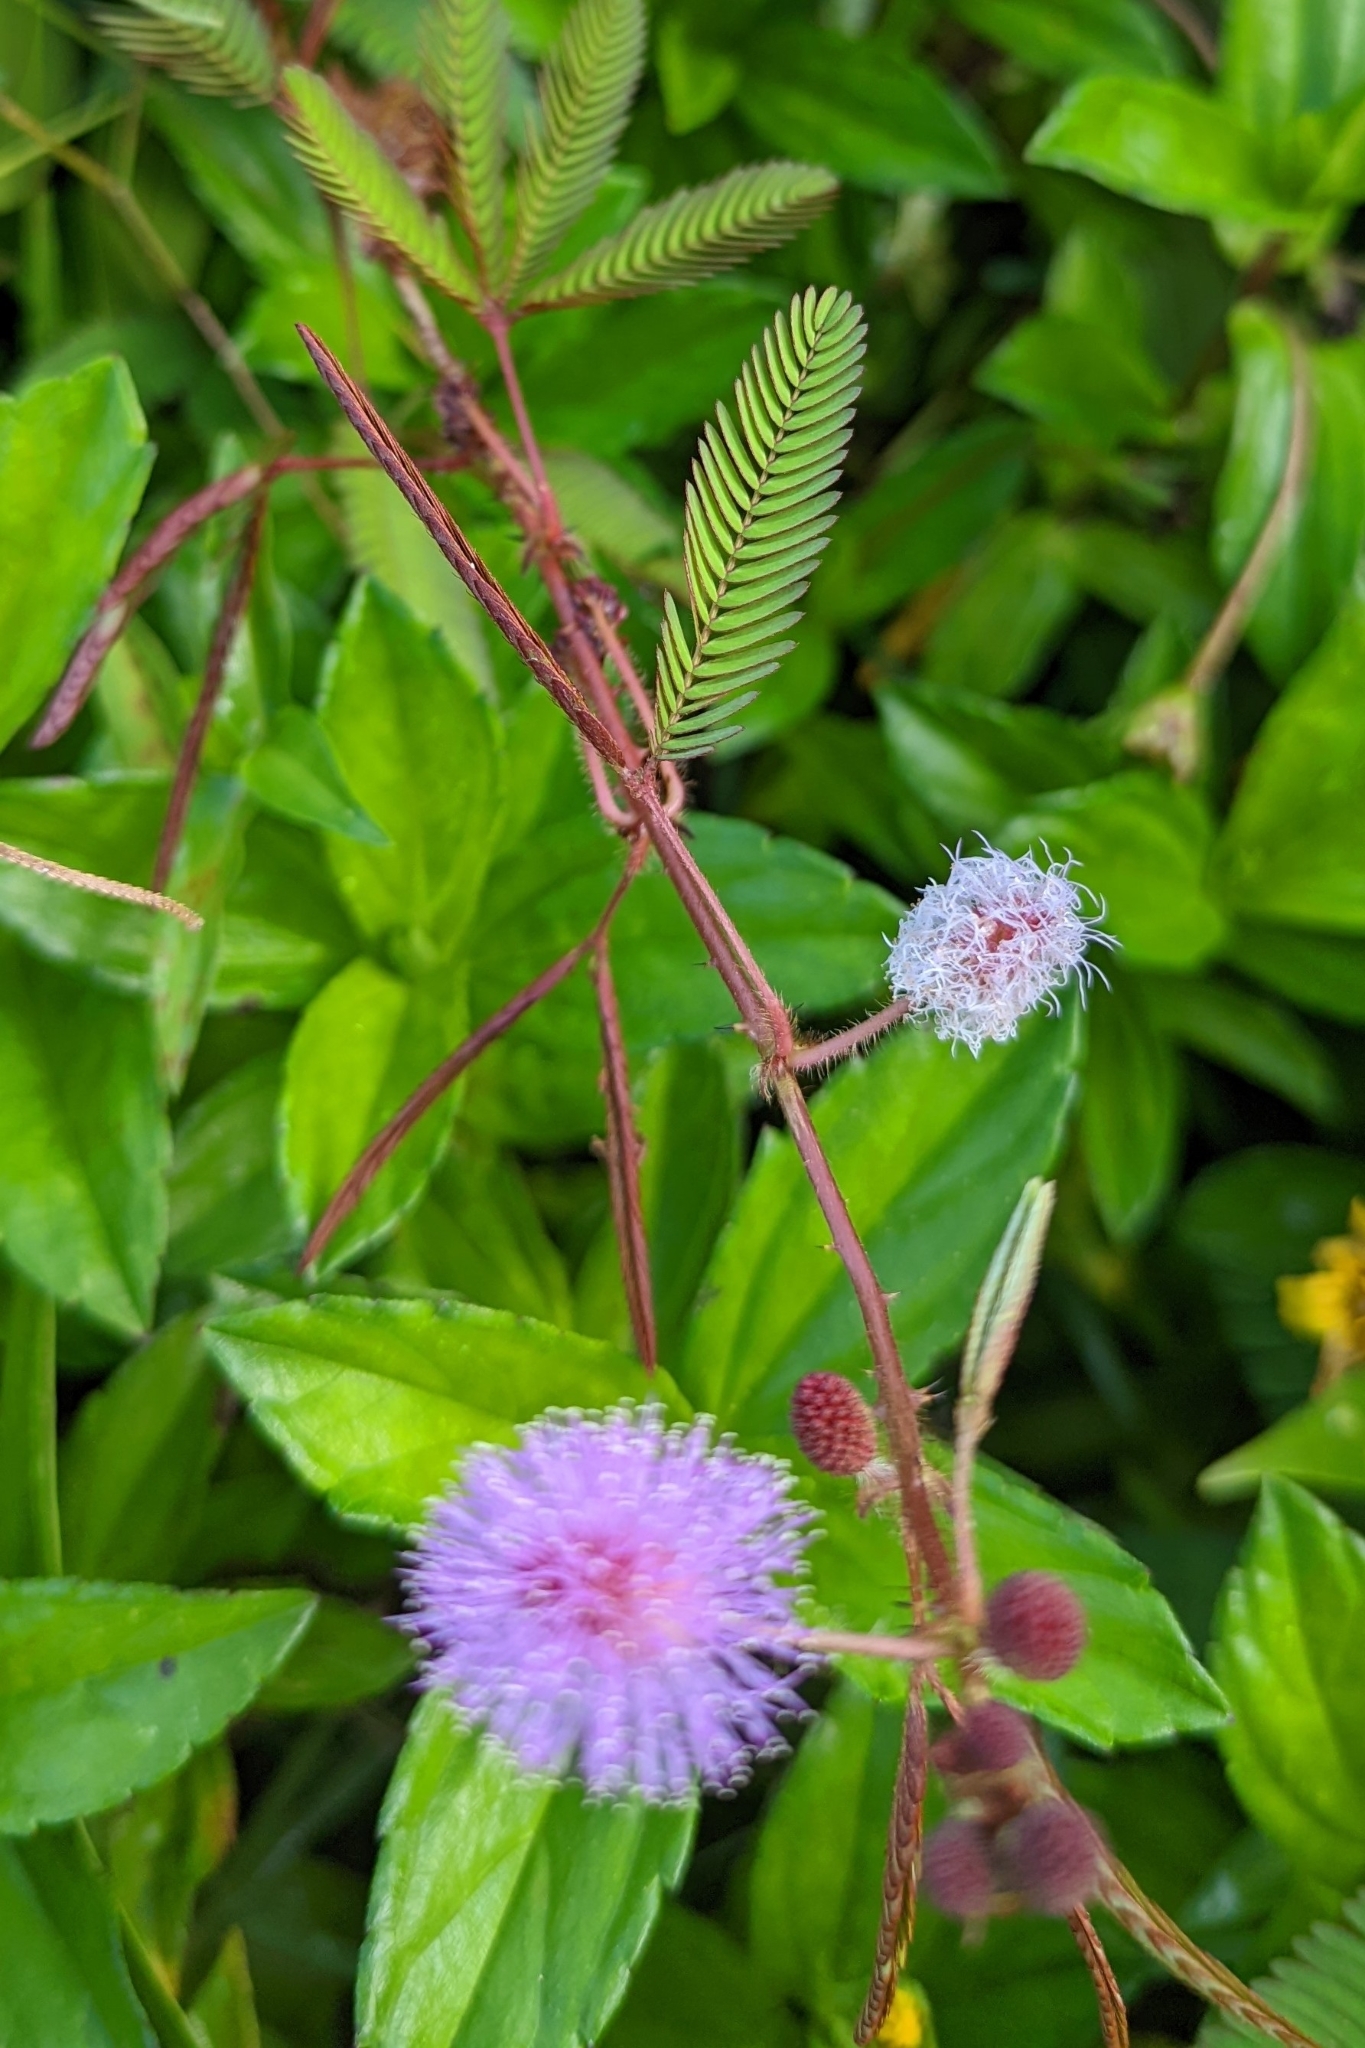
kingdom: Plantae
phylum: Tracheophyta
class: Magnoliopsida
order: Fabales
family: Fabaceae
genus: Mimosa
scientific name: Mimosa pudica
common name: Sensitive plant
